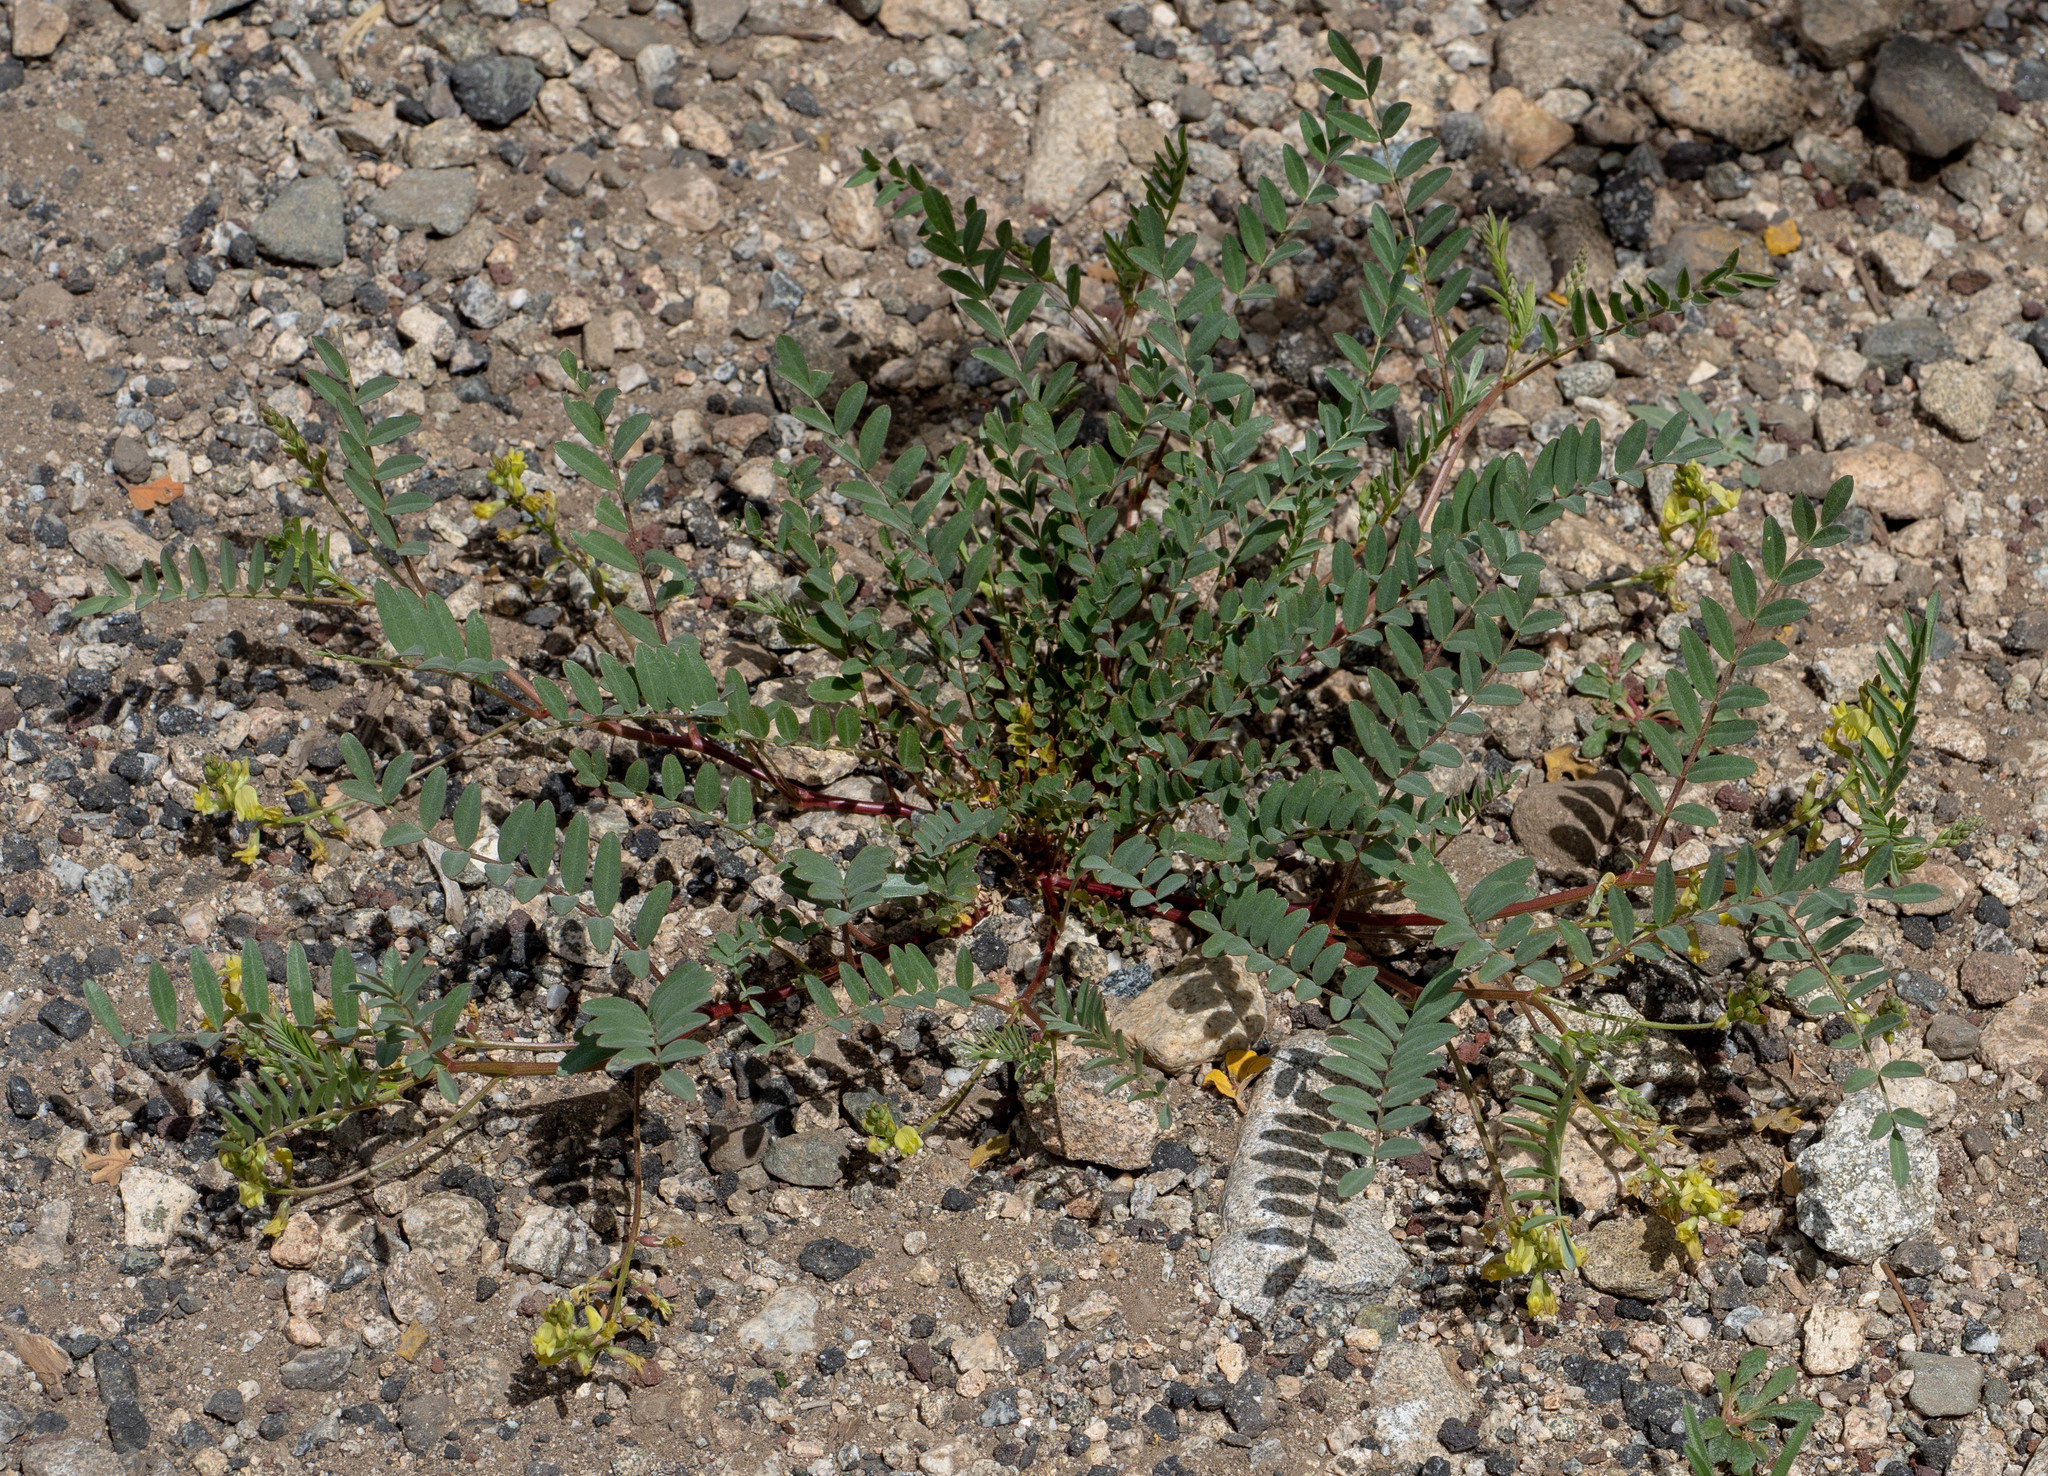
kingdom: Plantae
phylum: Tracheophyta
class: Magnoliopsida
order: Fabales
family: Fabaceae
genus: Astragalus
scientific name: Astragalus douglasii
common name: Jacumba milkvetch
